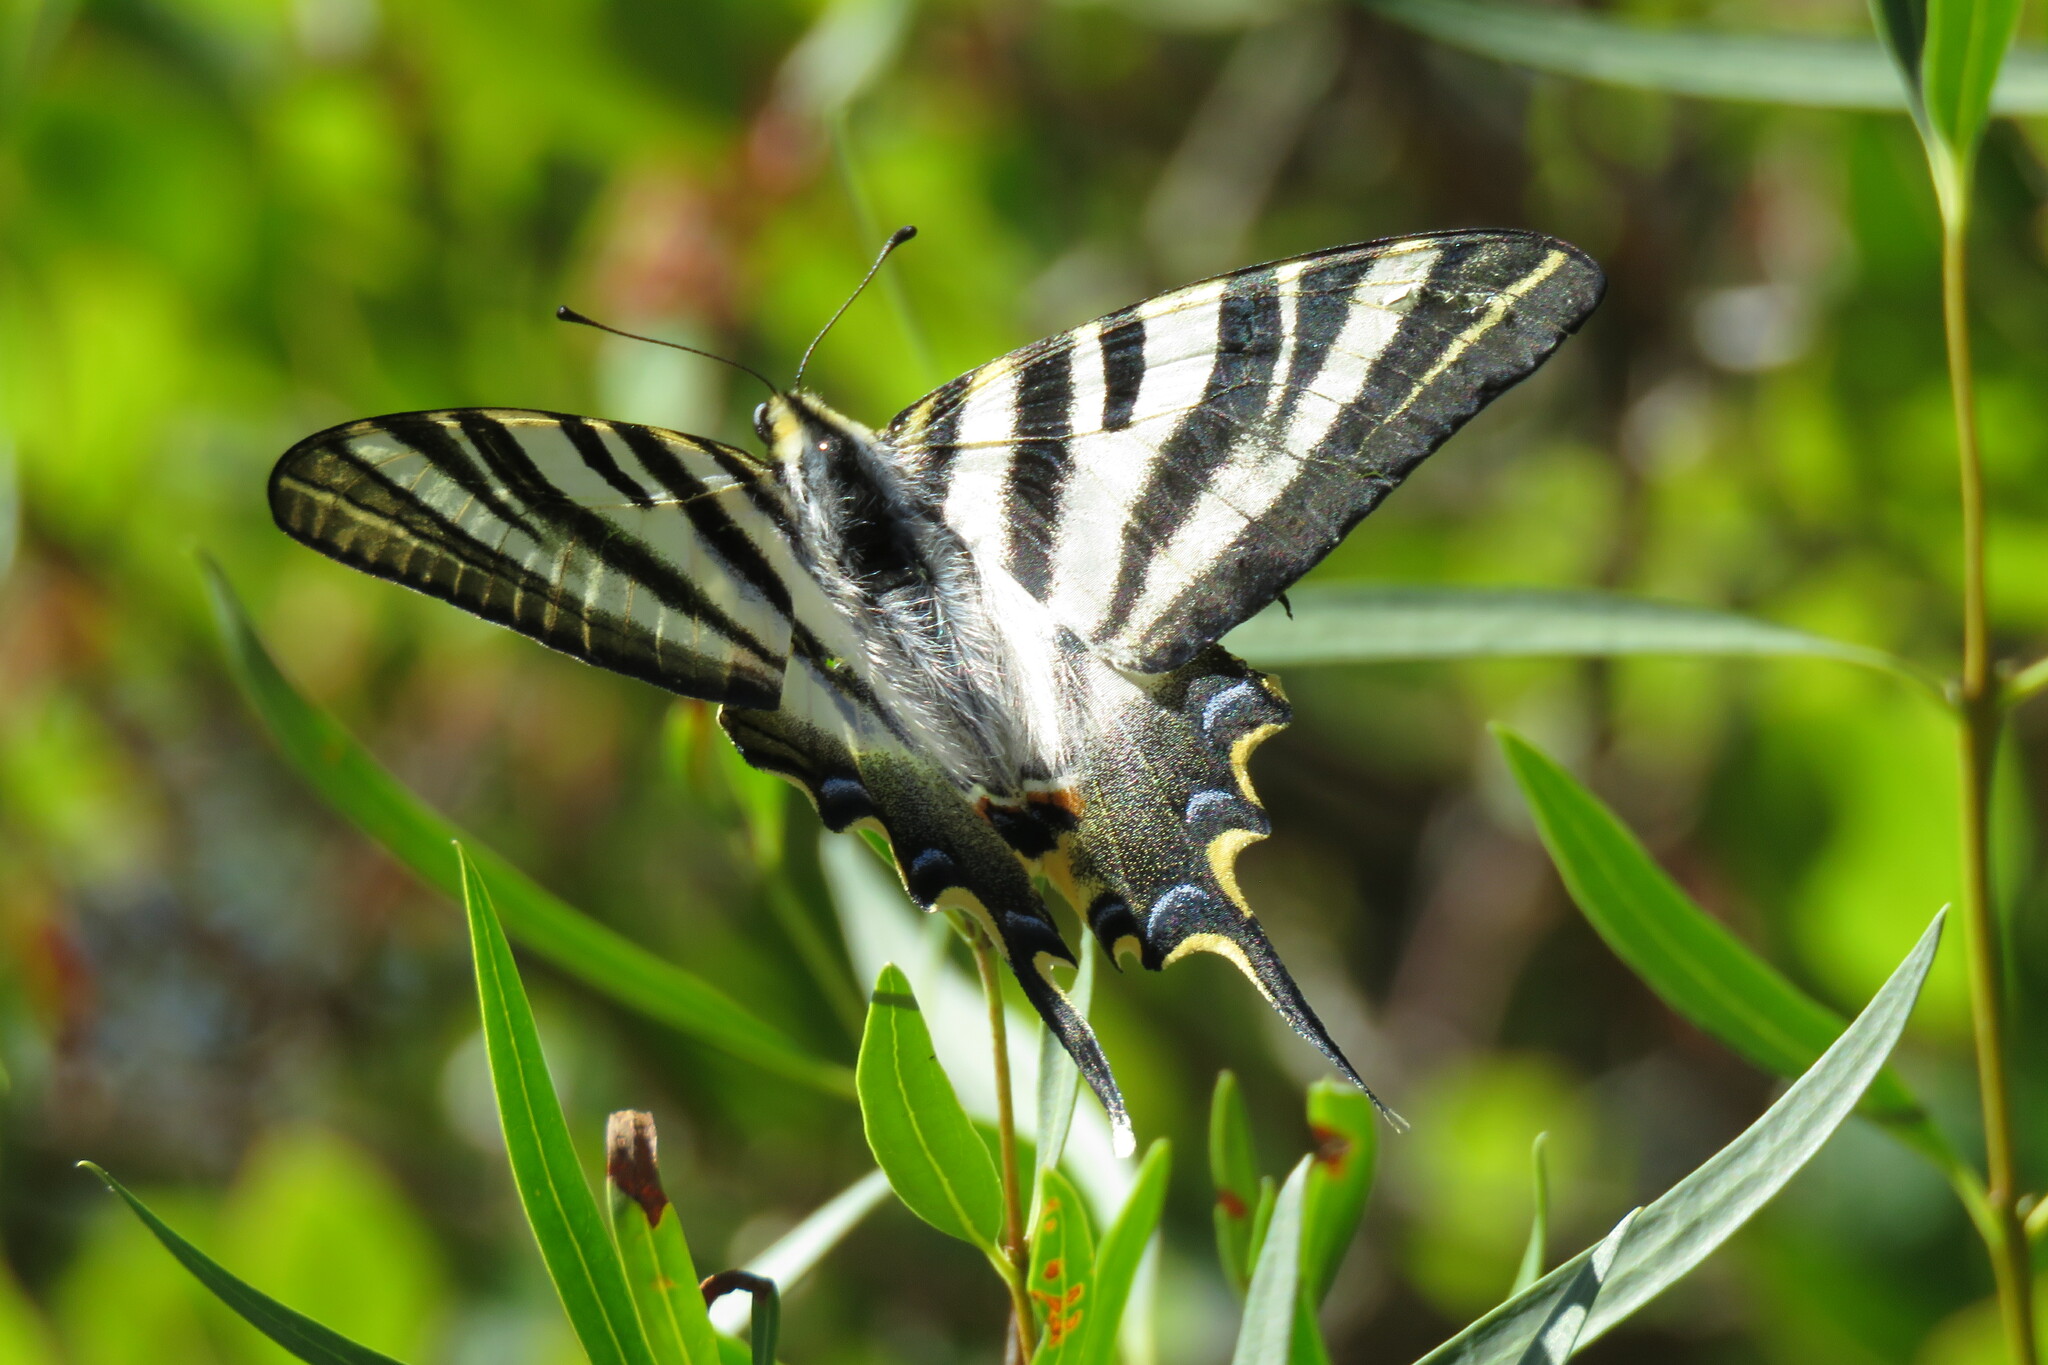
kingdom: Animalia
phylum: Arthropoda
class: Insecta
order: Lepidoptera
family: Papilionidae
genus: Iphiclides
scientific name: Iphiclides feisthamelii
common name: Iberian scarce swallowtail
